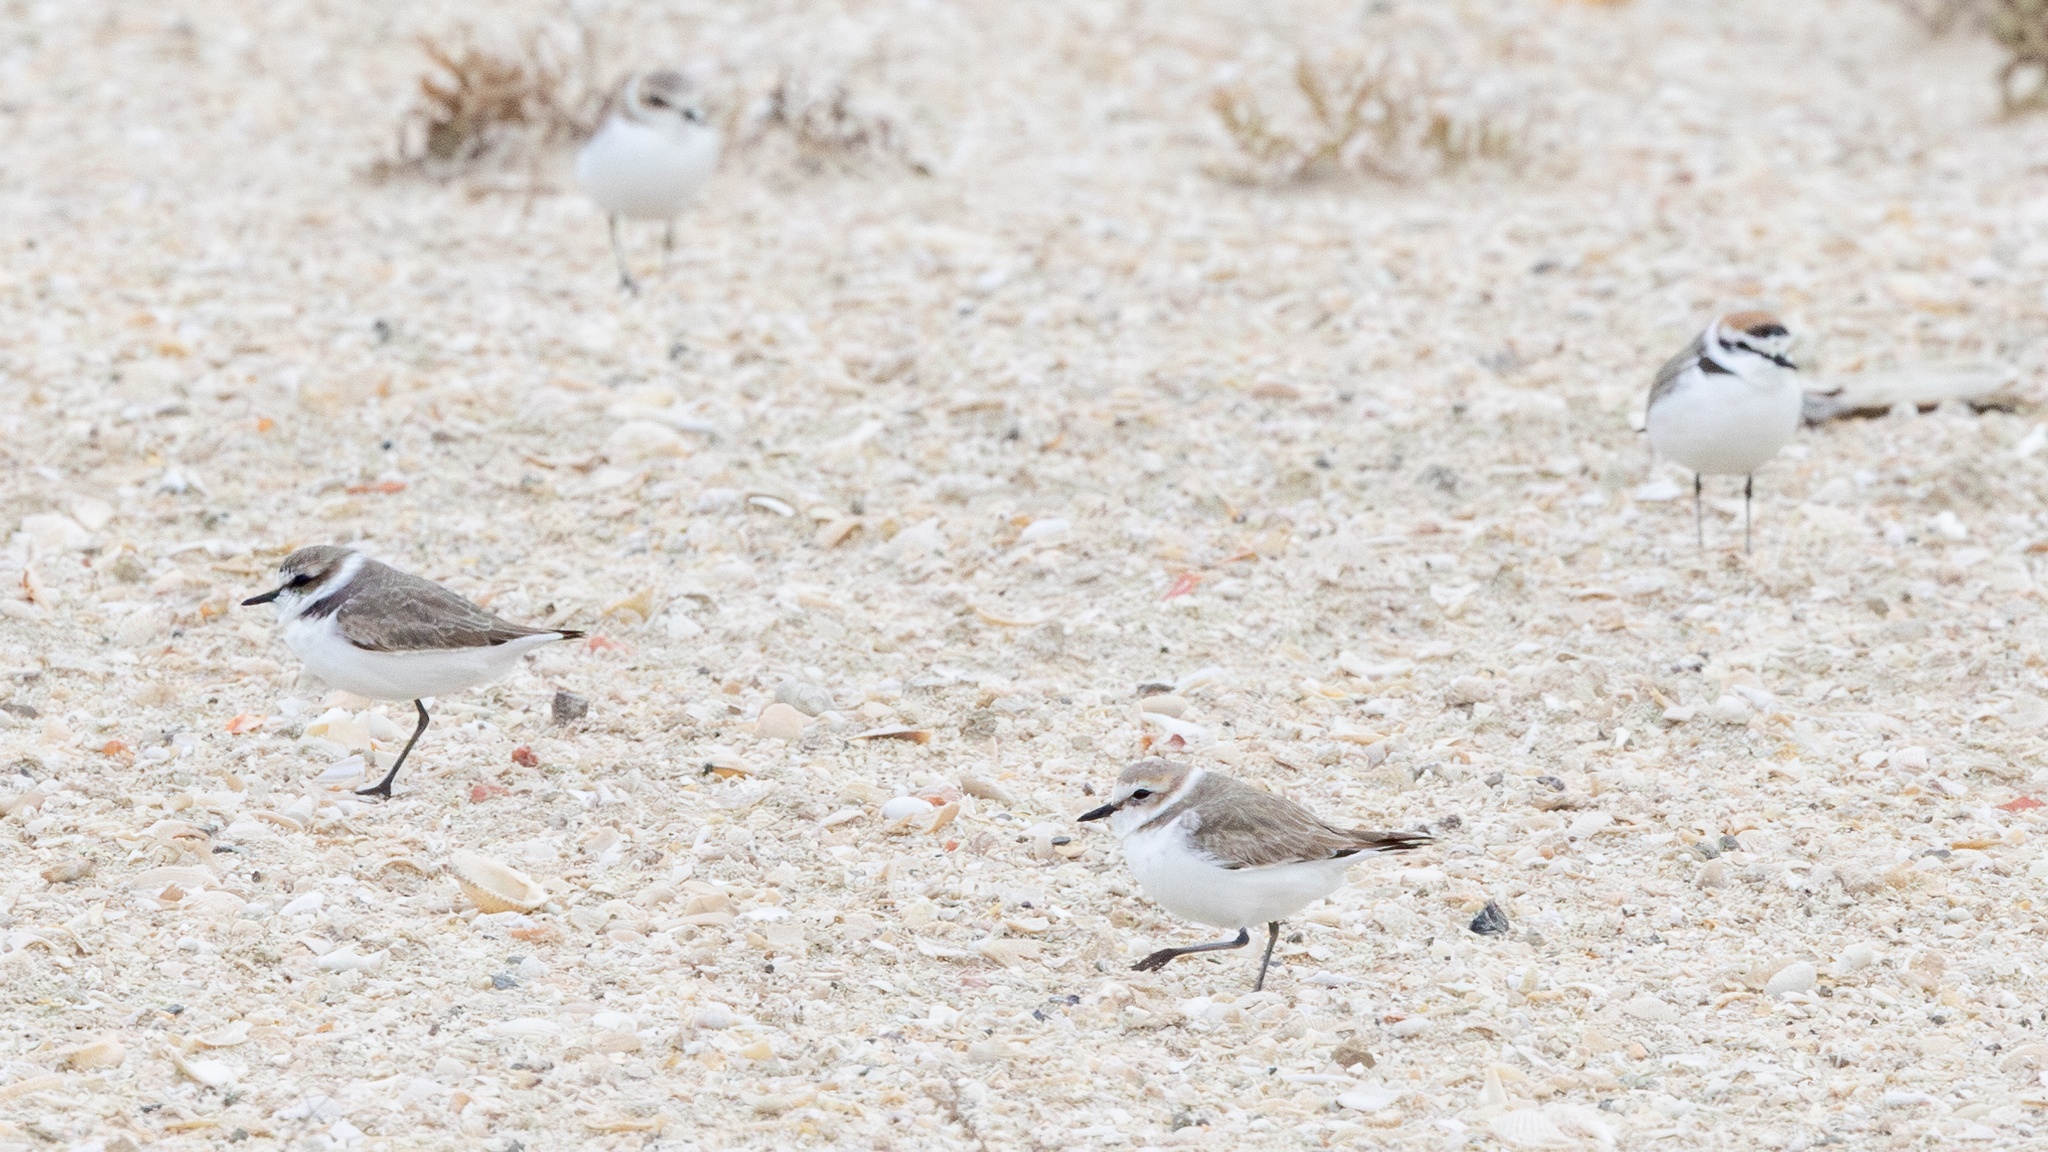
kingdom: Animalia
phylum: Chordata
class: Aves
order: Charadriiformes
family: Charadriidae
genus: Charadrius
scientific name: Charadrius alexandrinus
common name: Kentish plover
